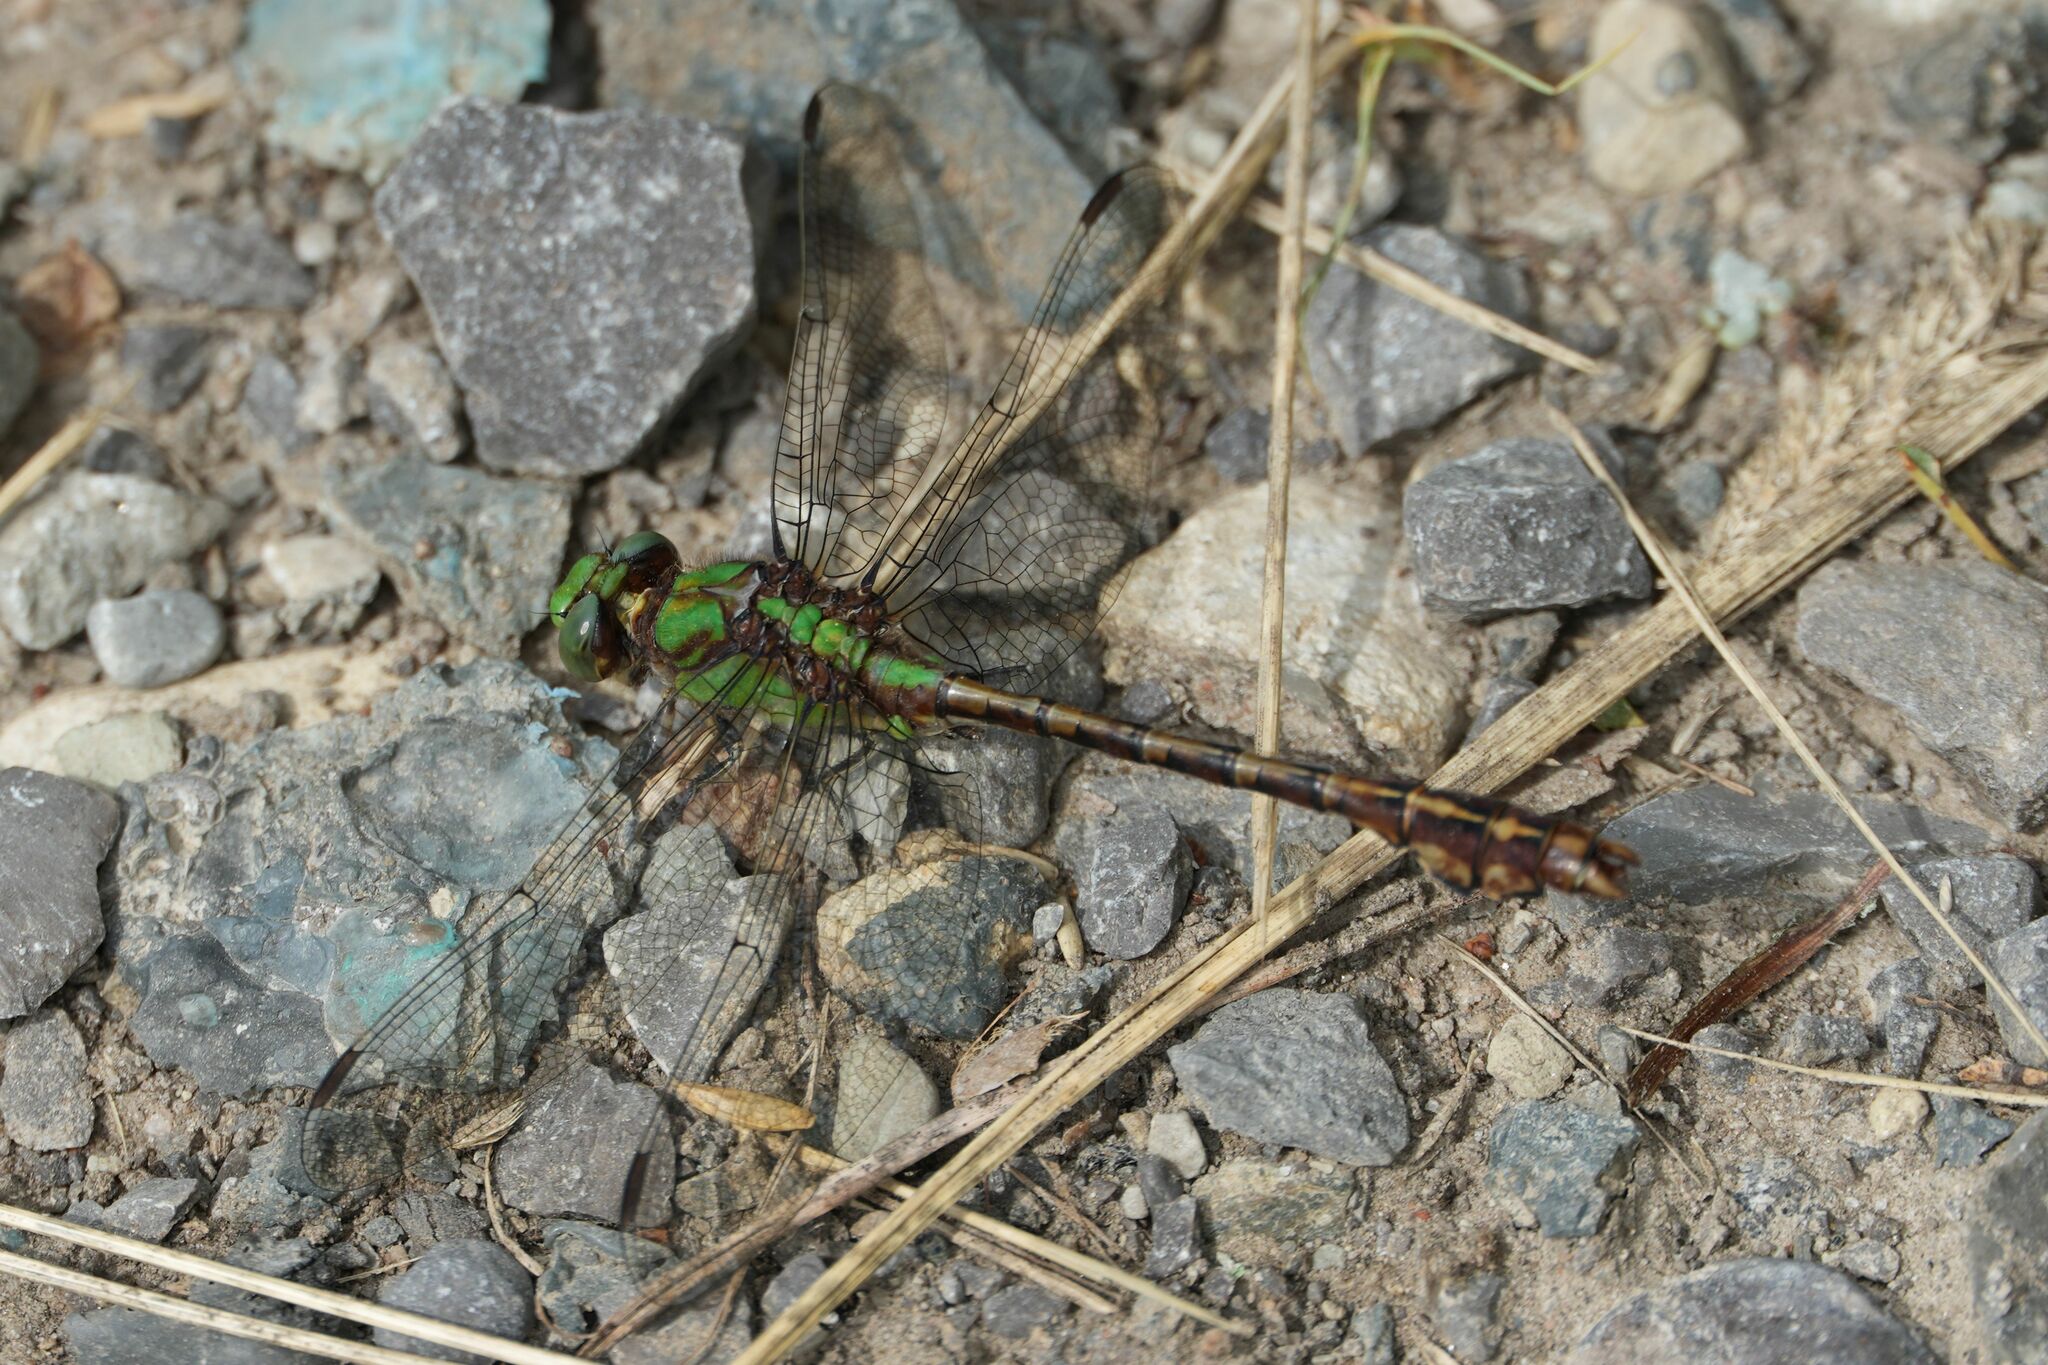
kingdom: Animalia
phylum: Arthropoda
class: Insecta
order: Odonata
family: Gomphidae
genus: Ophiogomphus
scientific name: Ophiogomphus rupinsulensis
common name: Rusty snaketail
